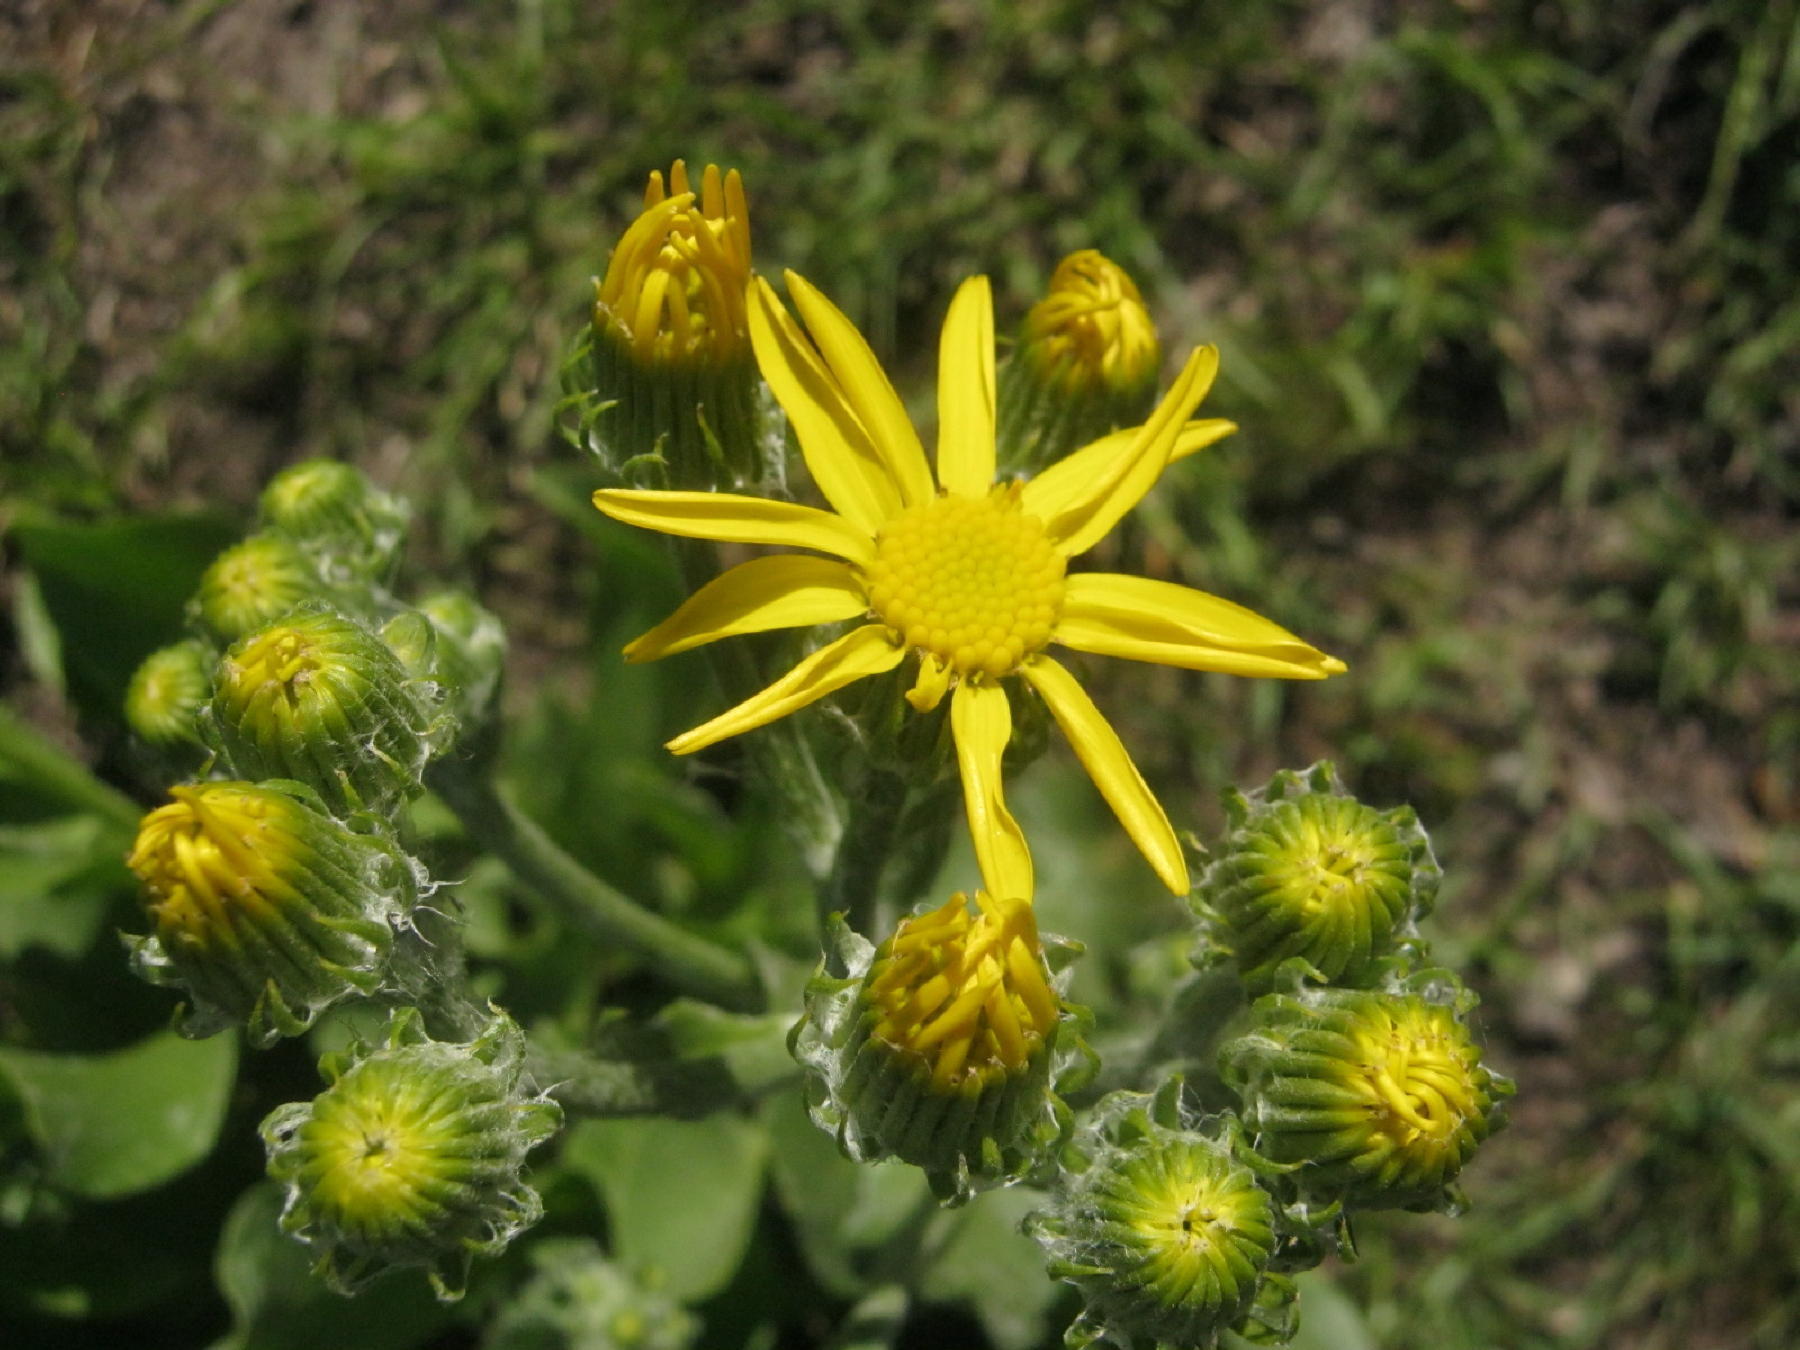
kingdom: Plantae
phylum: Tracheophyta
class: Magnoliopsida
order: Asterales
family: Asteraceae
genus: Senecio
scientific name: Senecio coronatus
